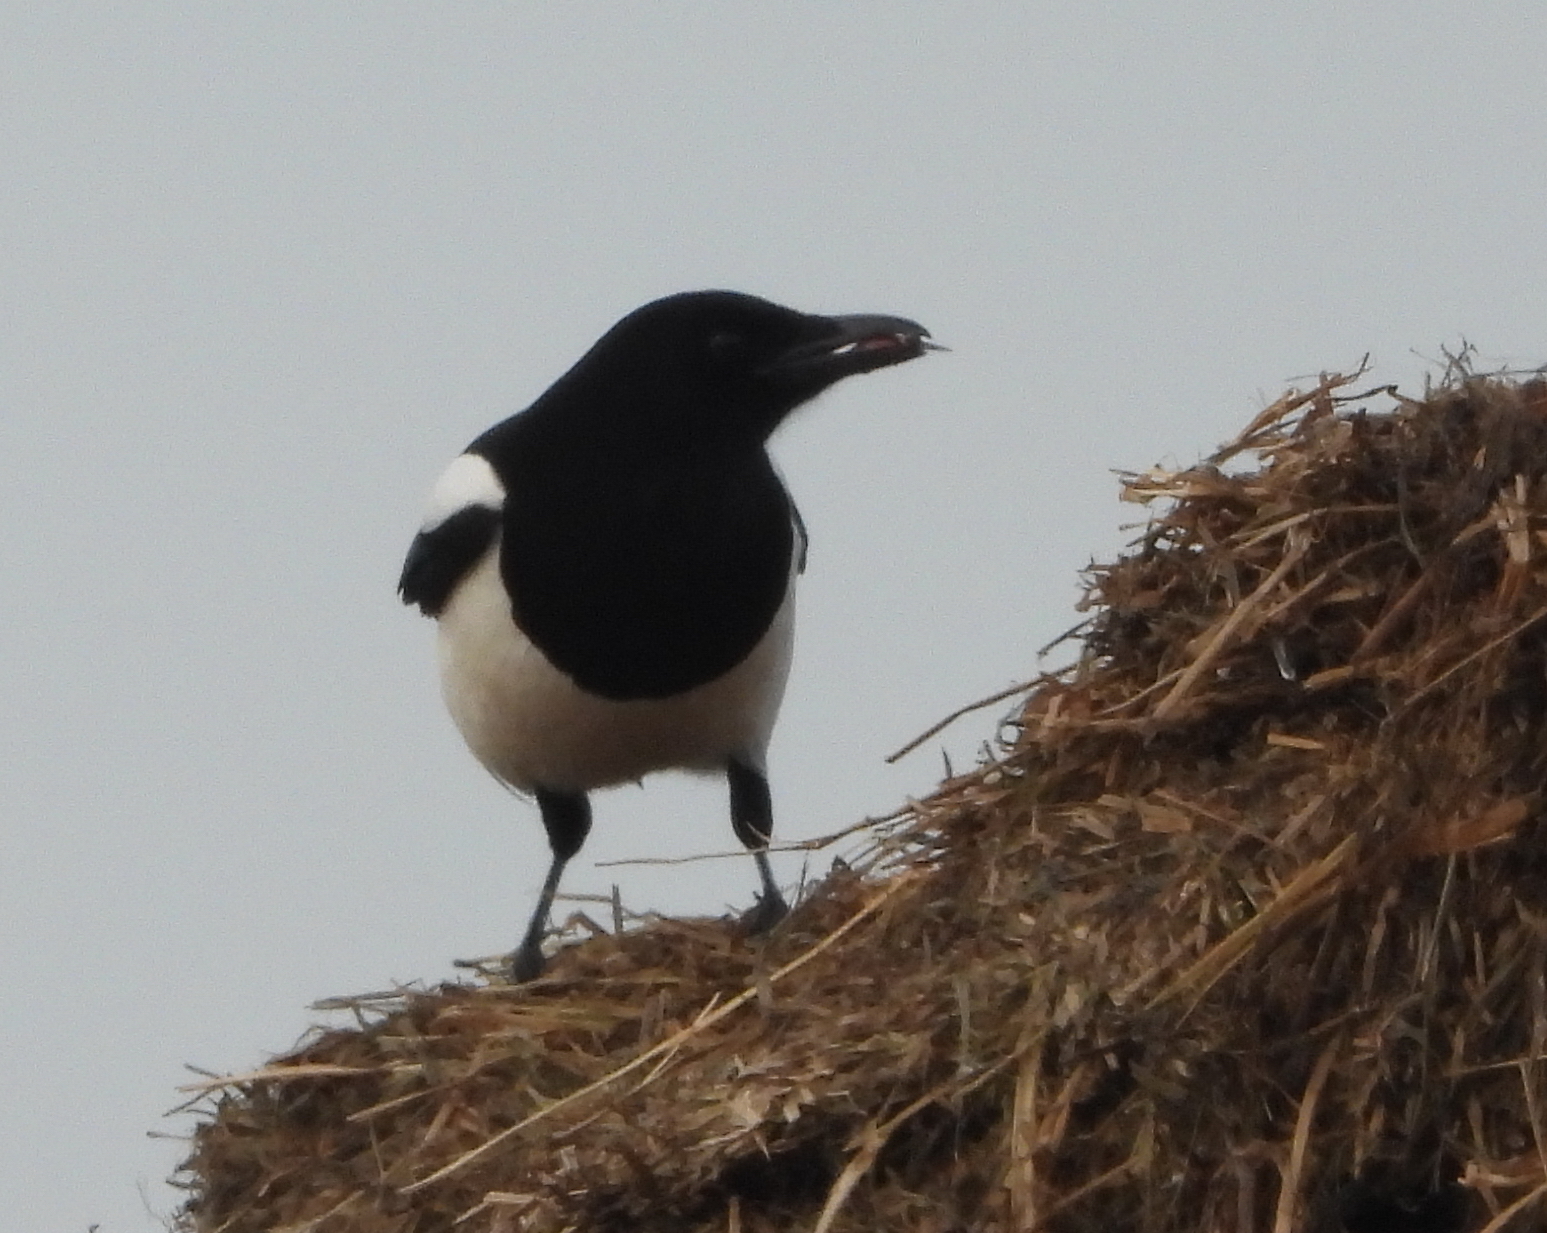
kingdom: Animalia
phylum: Chordata
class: Aves
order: Passeriformes
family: Corvidae
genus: Pica
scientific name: Pica pica
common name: Eurasian magpie
